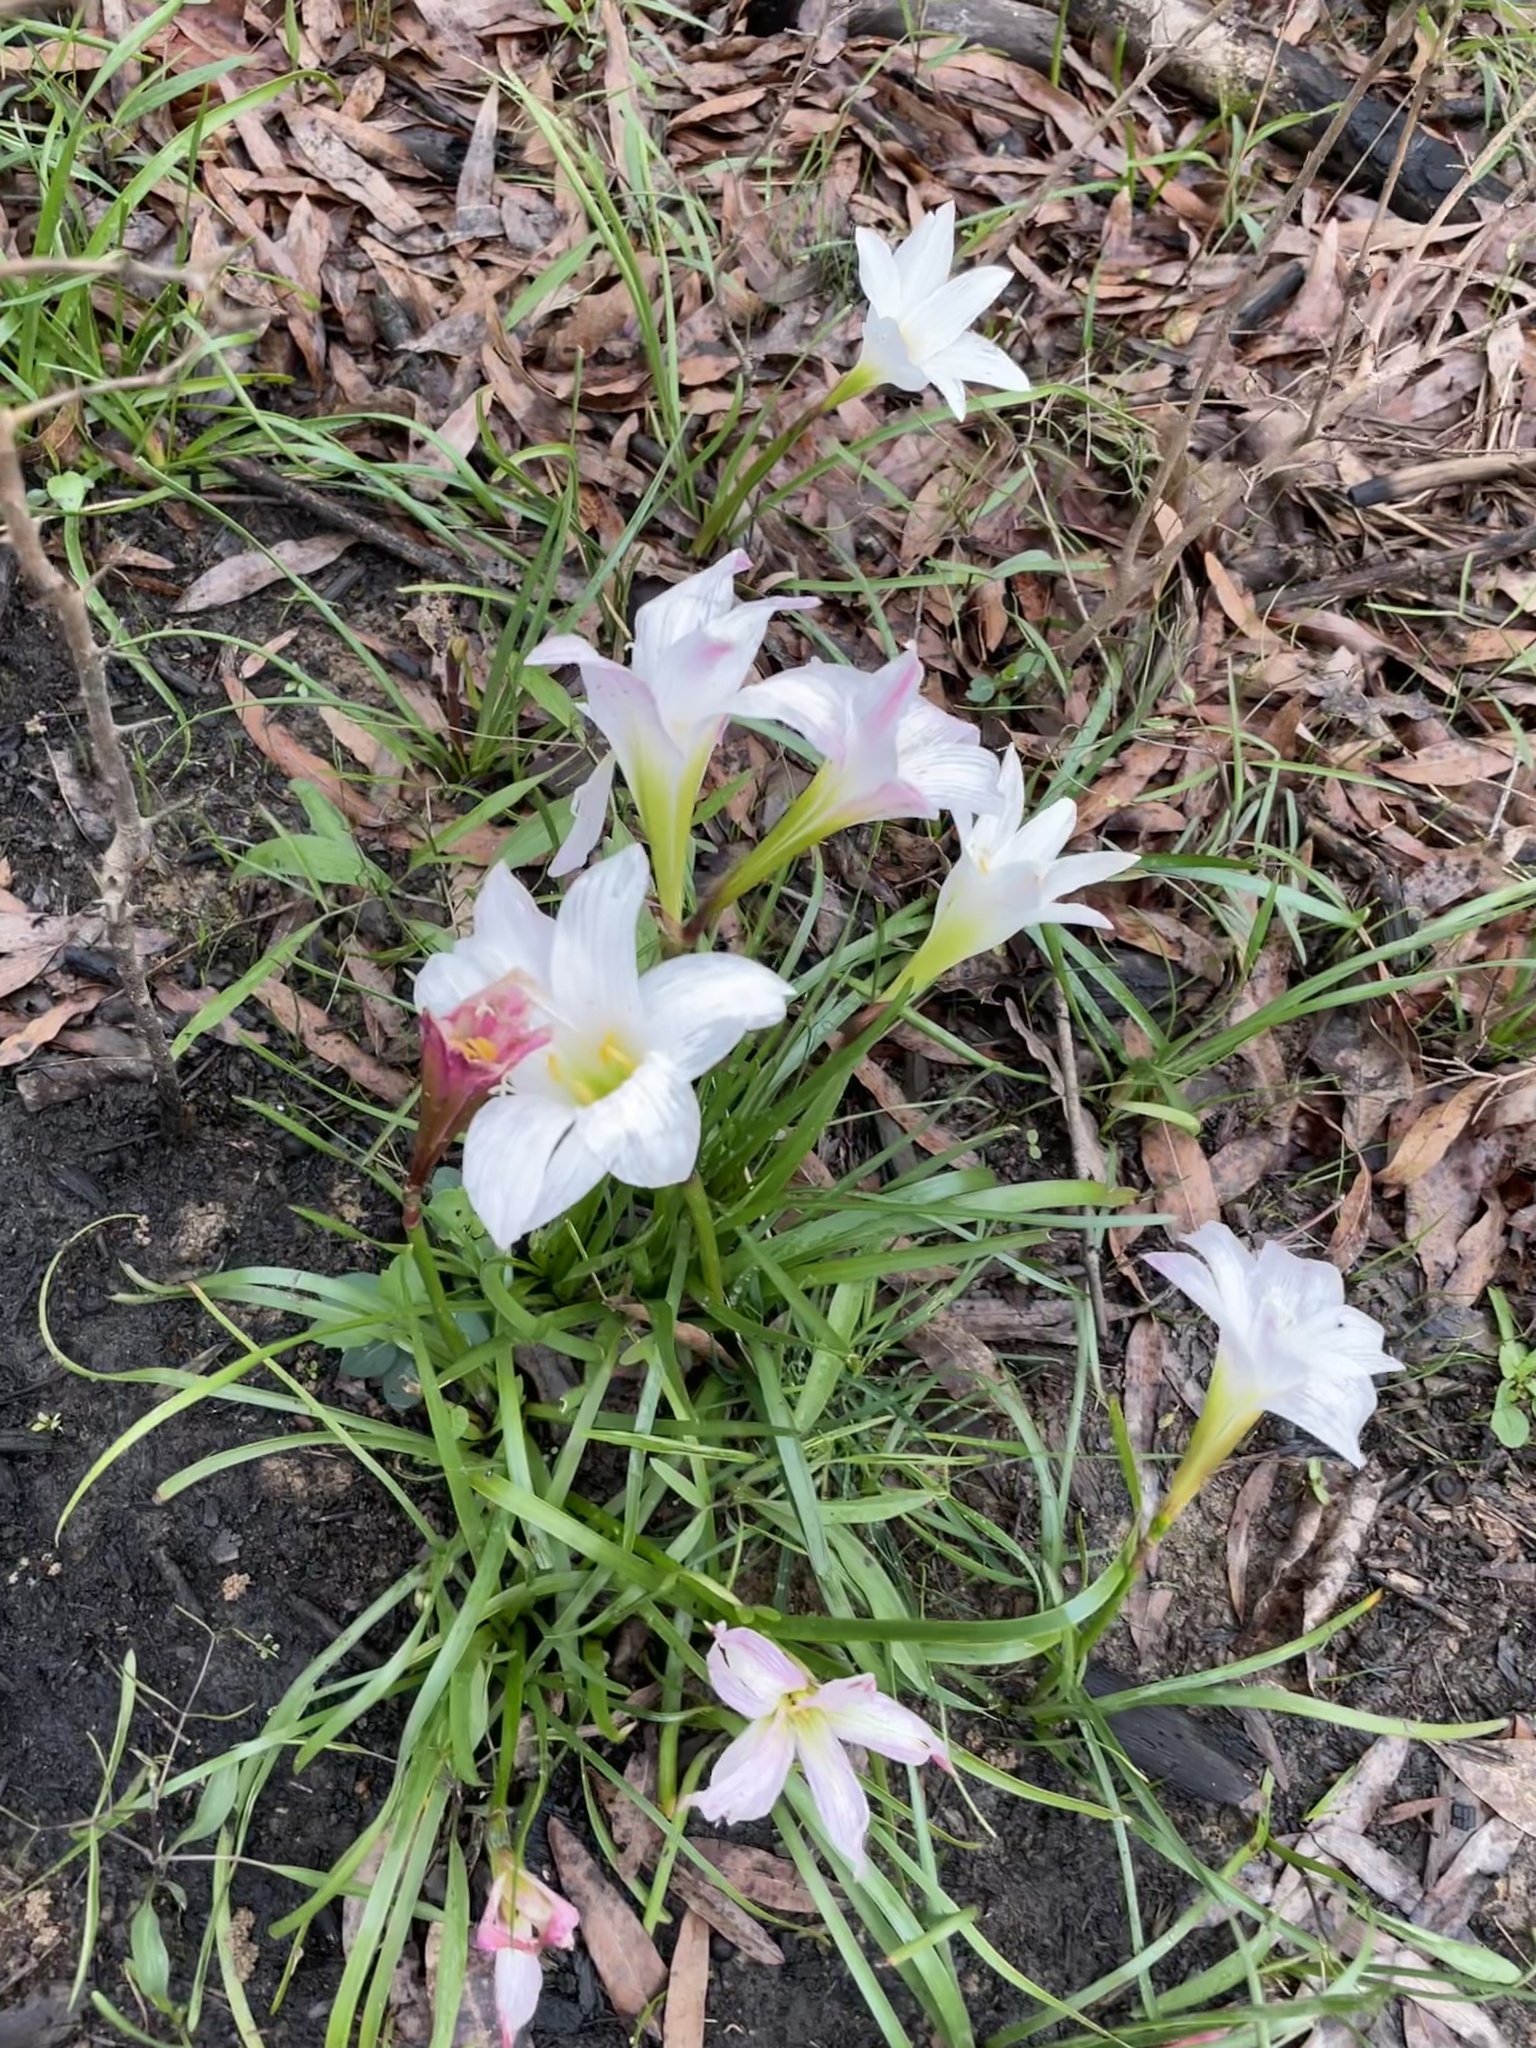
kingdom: Plantae
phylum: Tracheophyta
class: Liliopsida
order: Asparagales
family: Amaryllidaceae
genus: Zephyranthes
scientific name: Zephyranthes atamasco
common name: Atamasco lily
